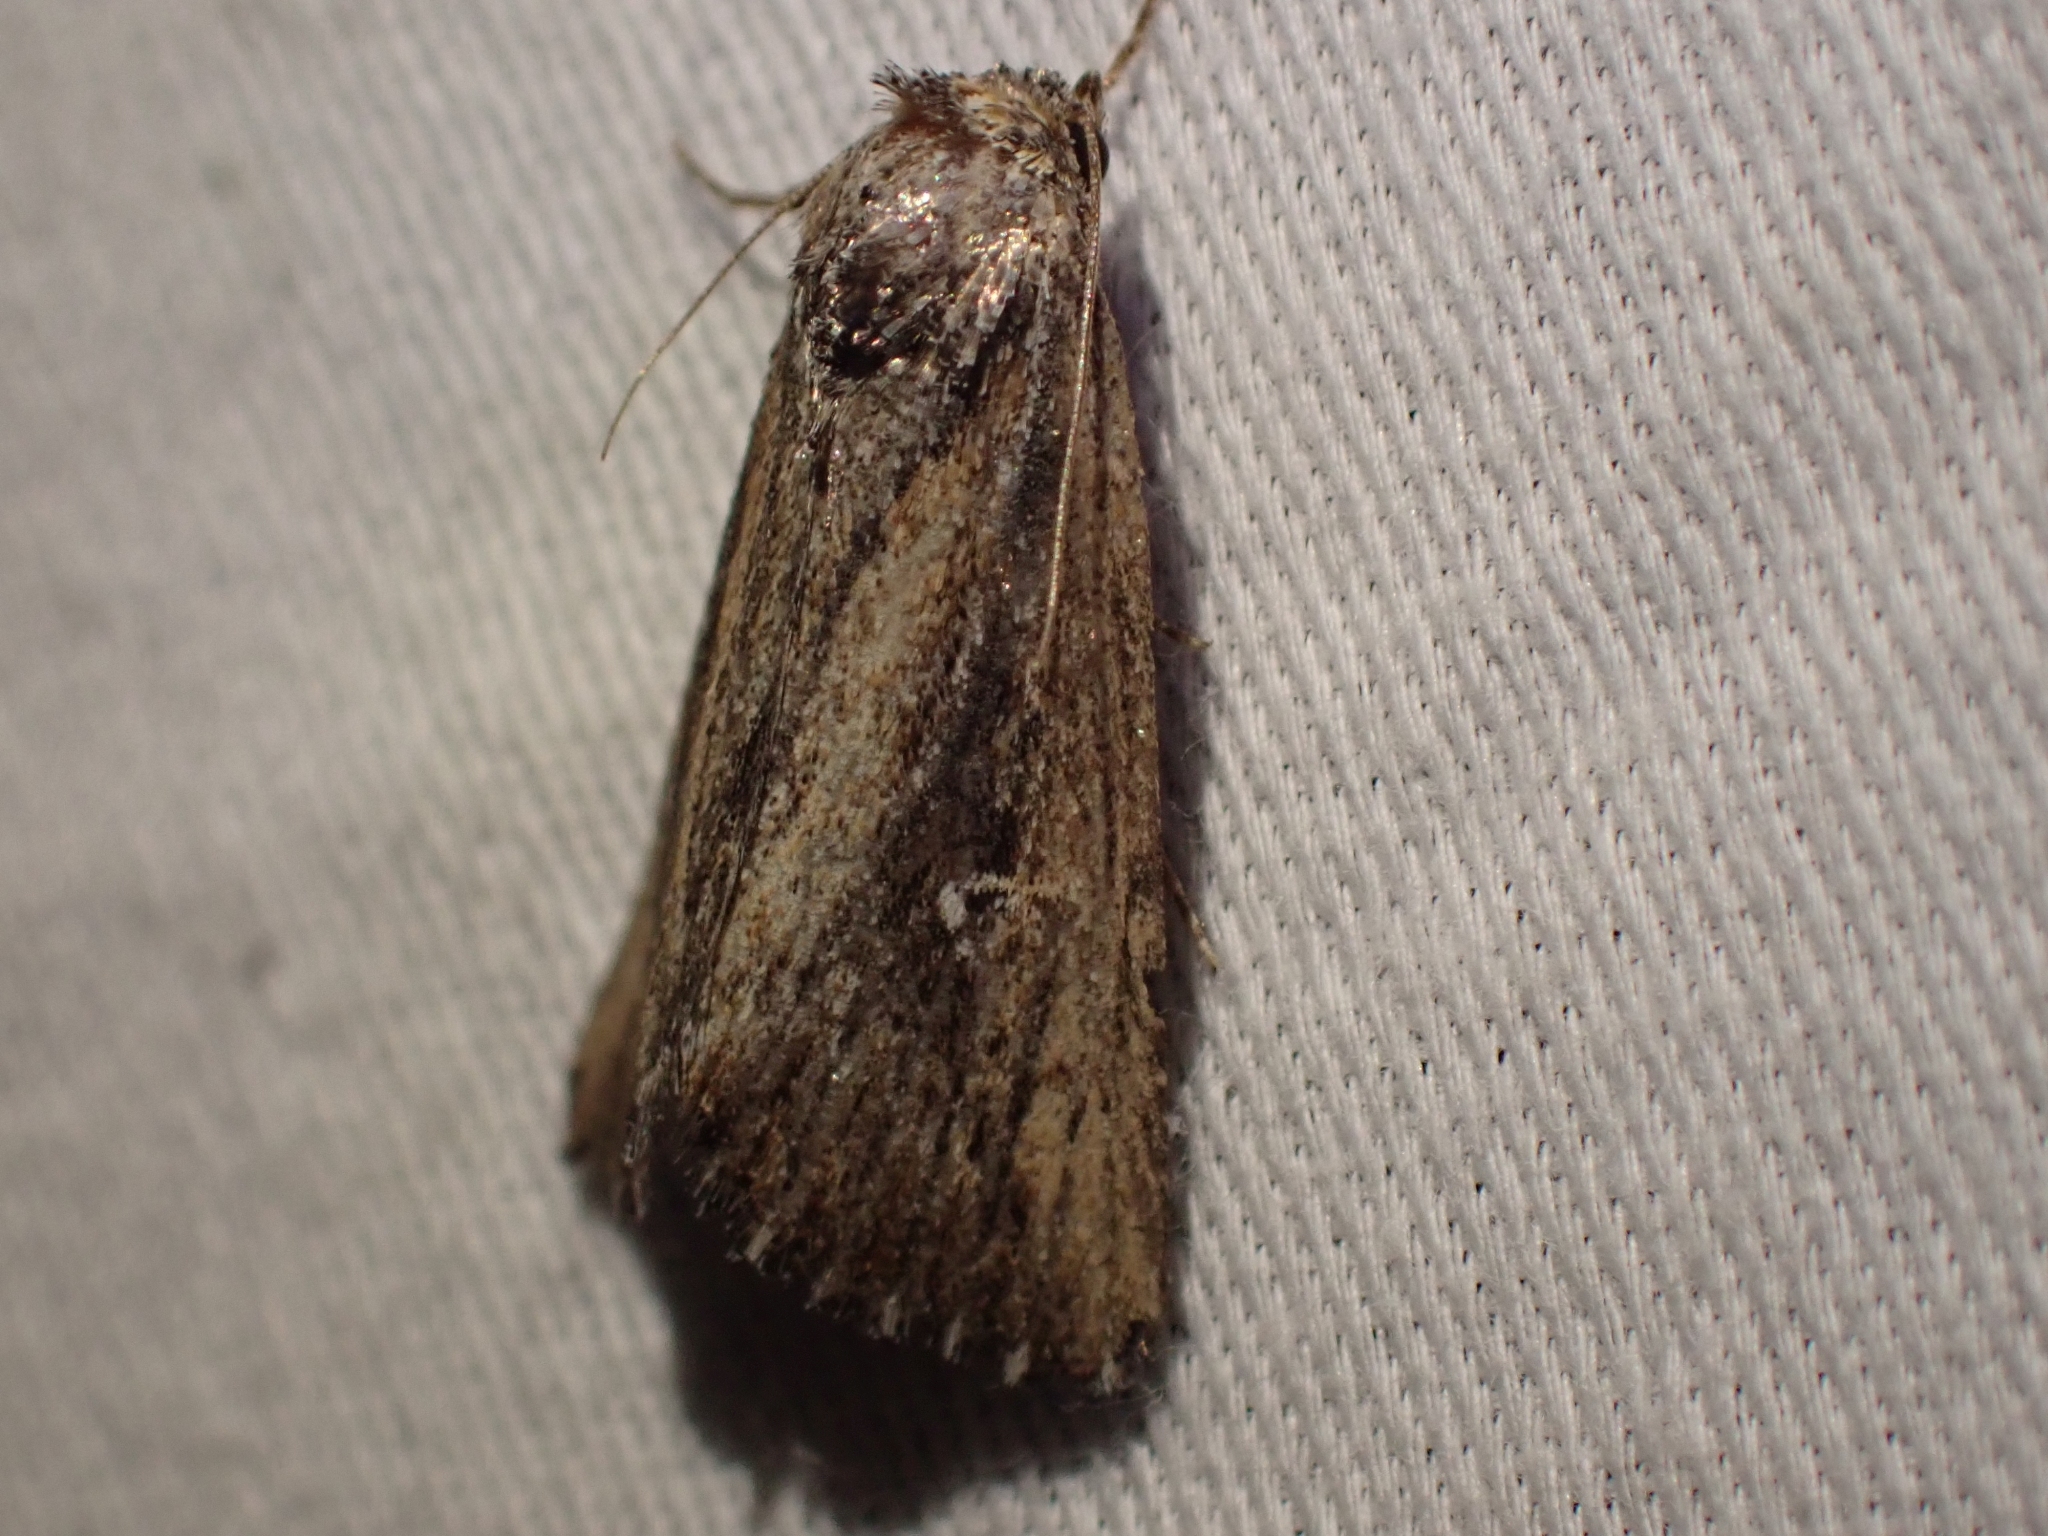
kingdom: Animalia
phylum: Arthropoda
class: Insecta
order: Lepidoptera
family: Noctuidae
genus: Condica
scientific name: Condica discistriga
